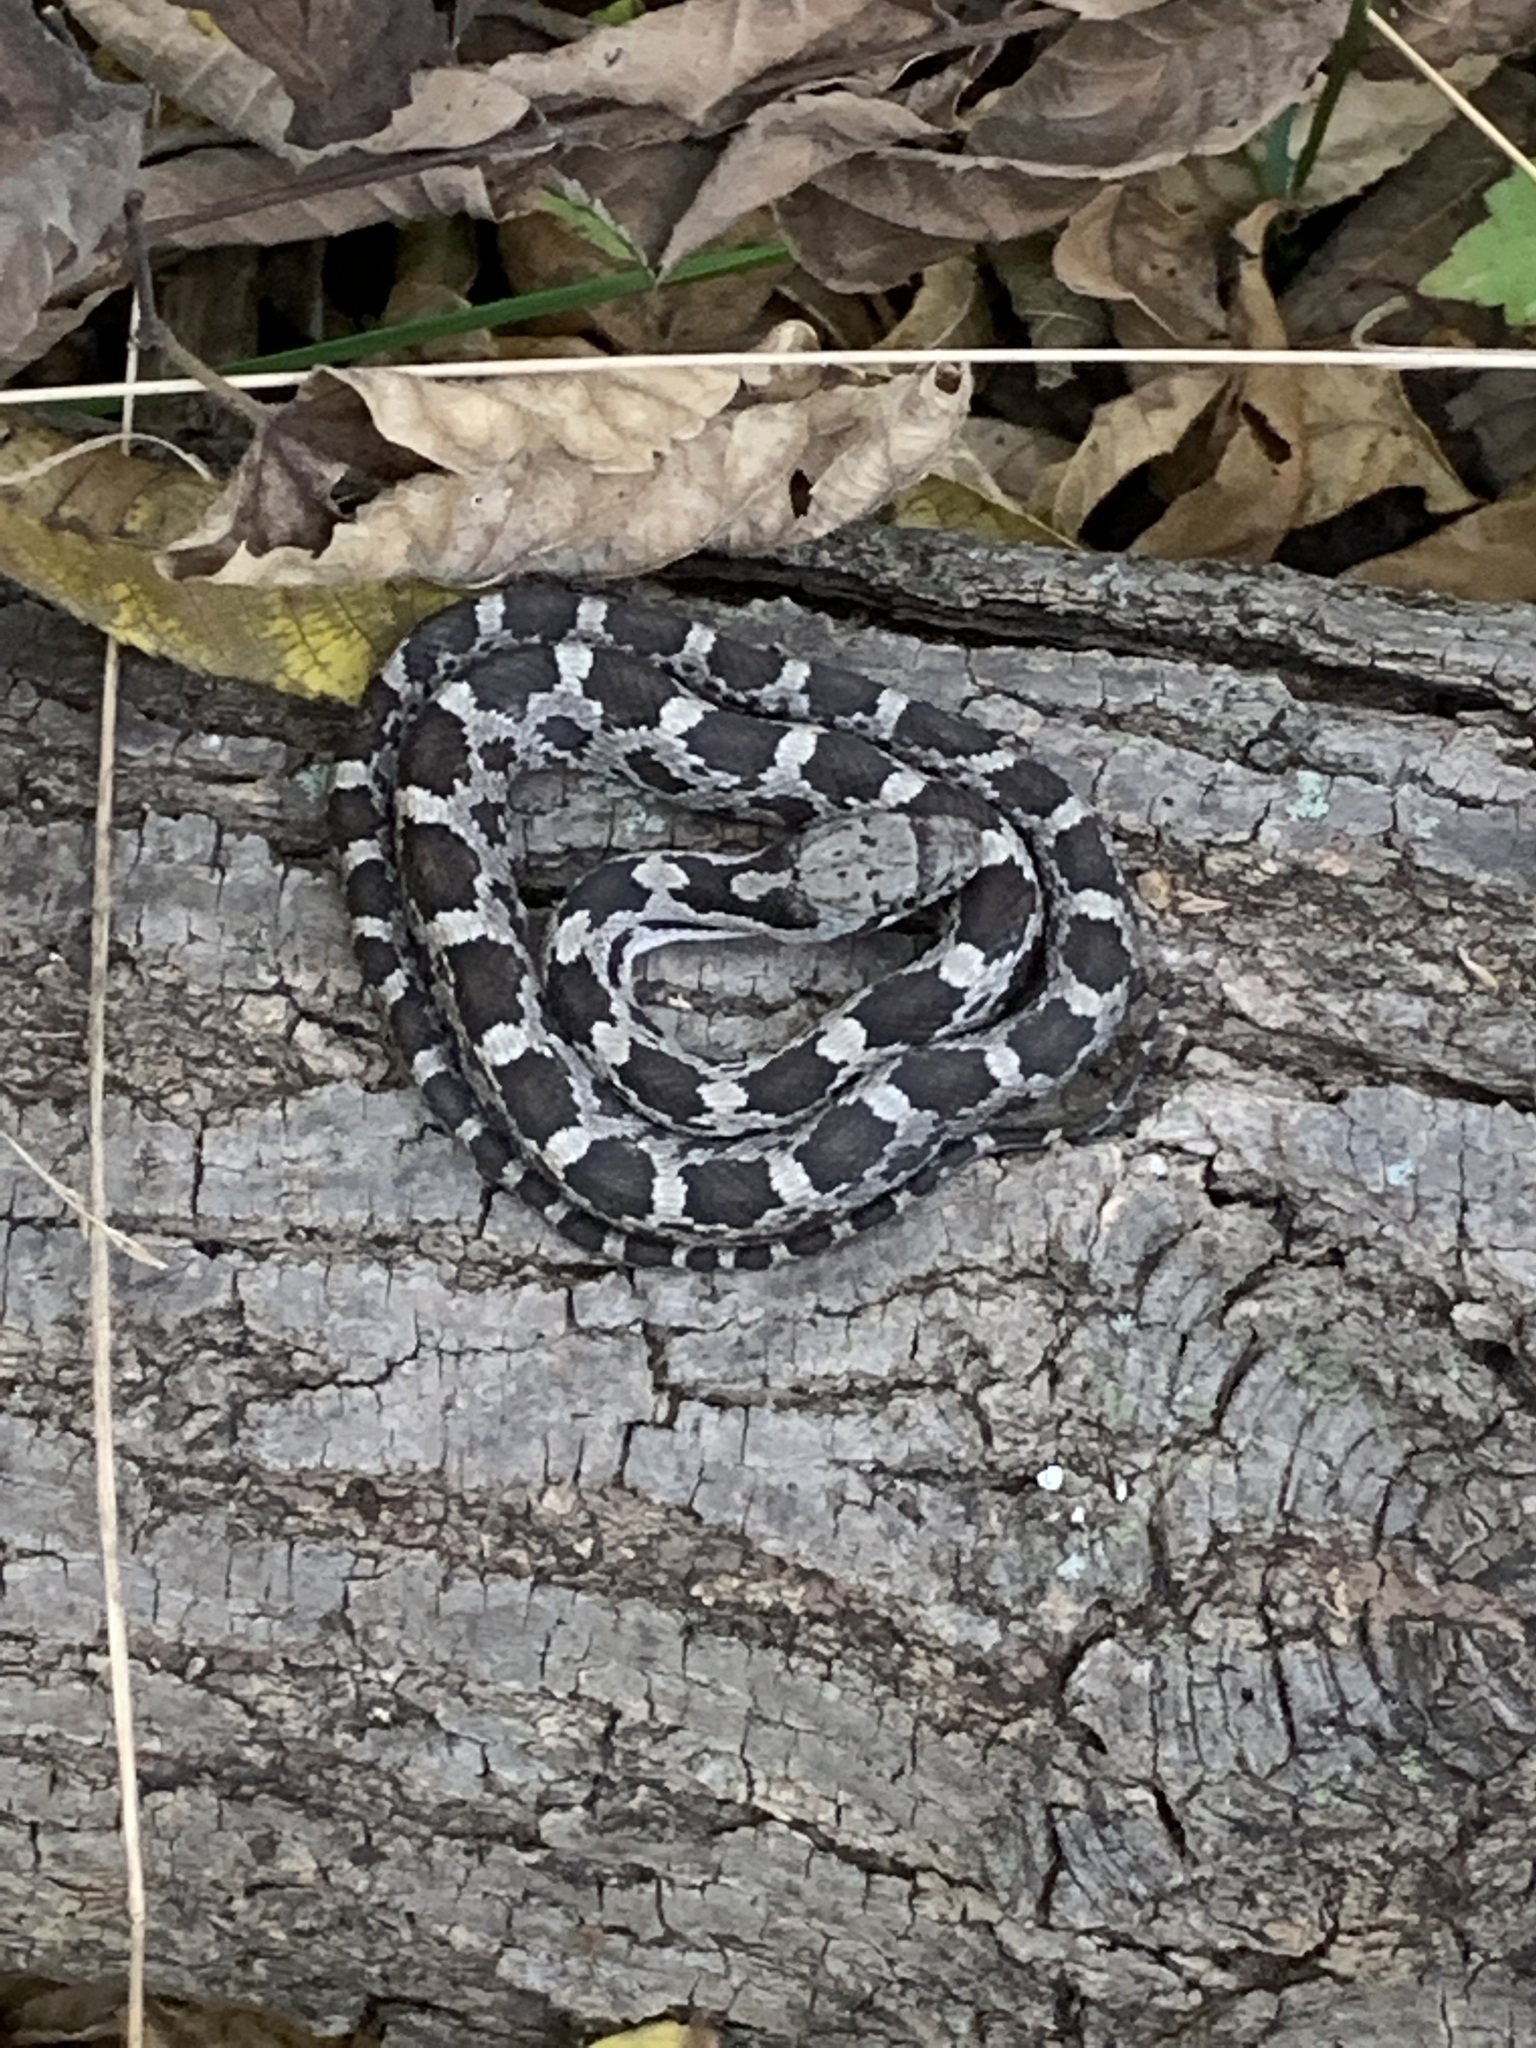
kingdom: Animalia
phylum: Chordata
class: Squamata
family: Colubridae
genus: Pantherophis
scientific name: Pantherophis spiloides
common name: Gray rat snake
